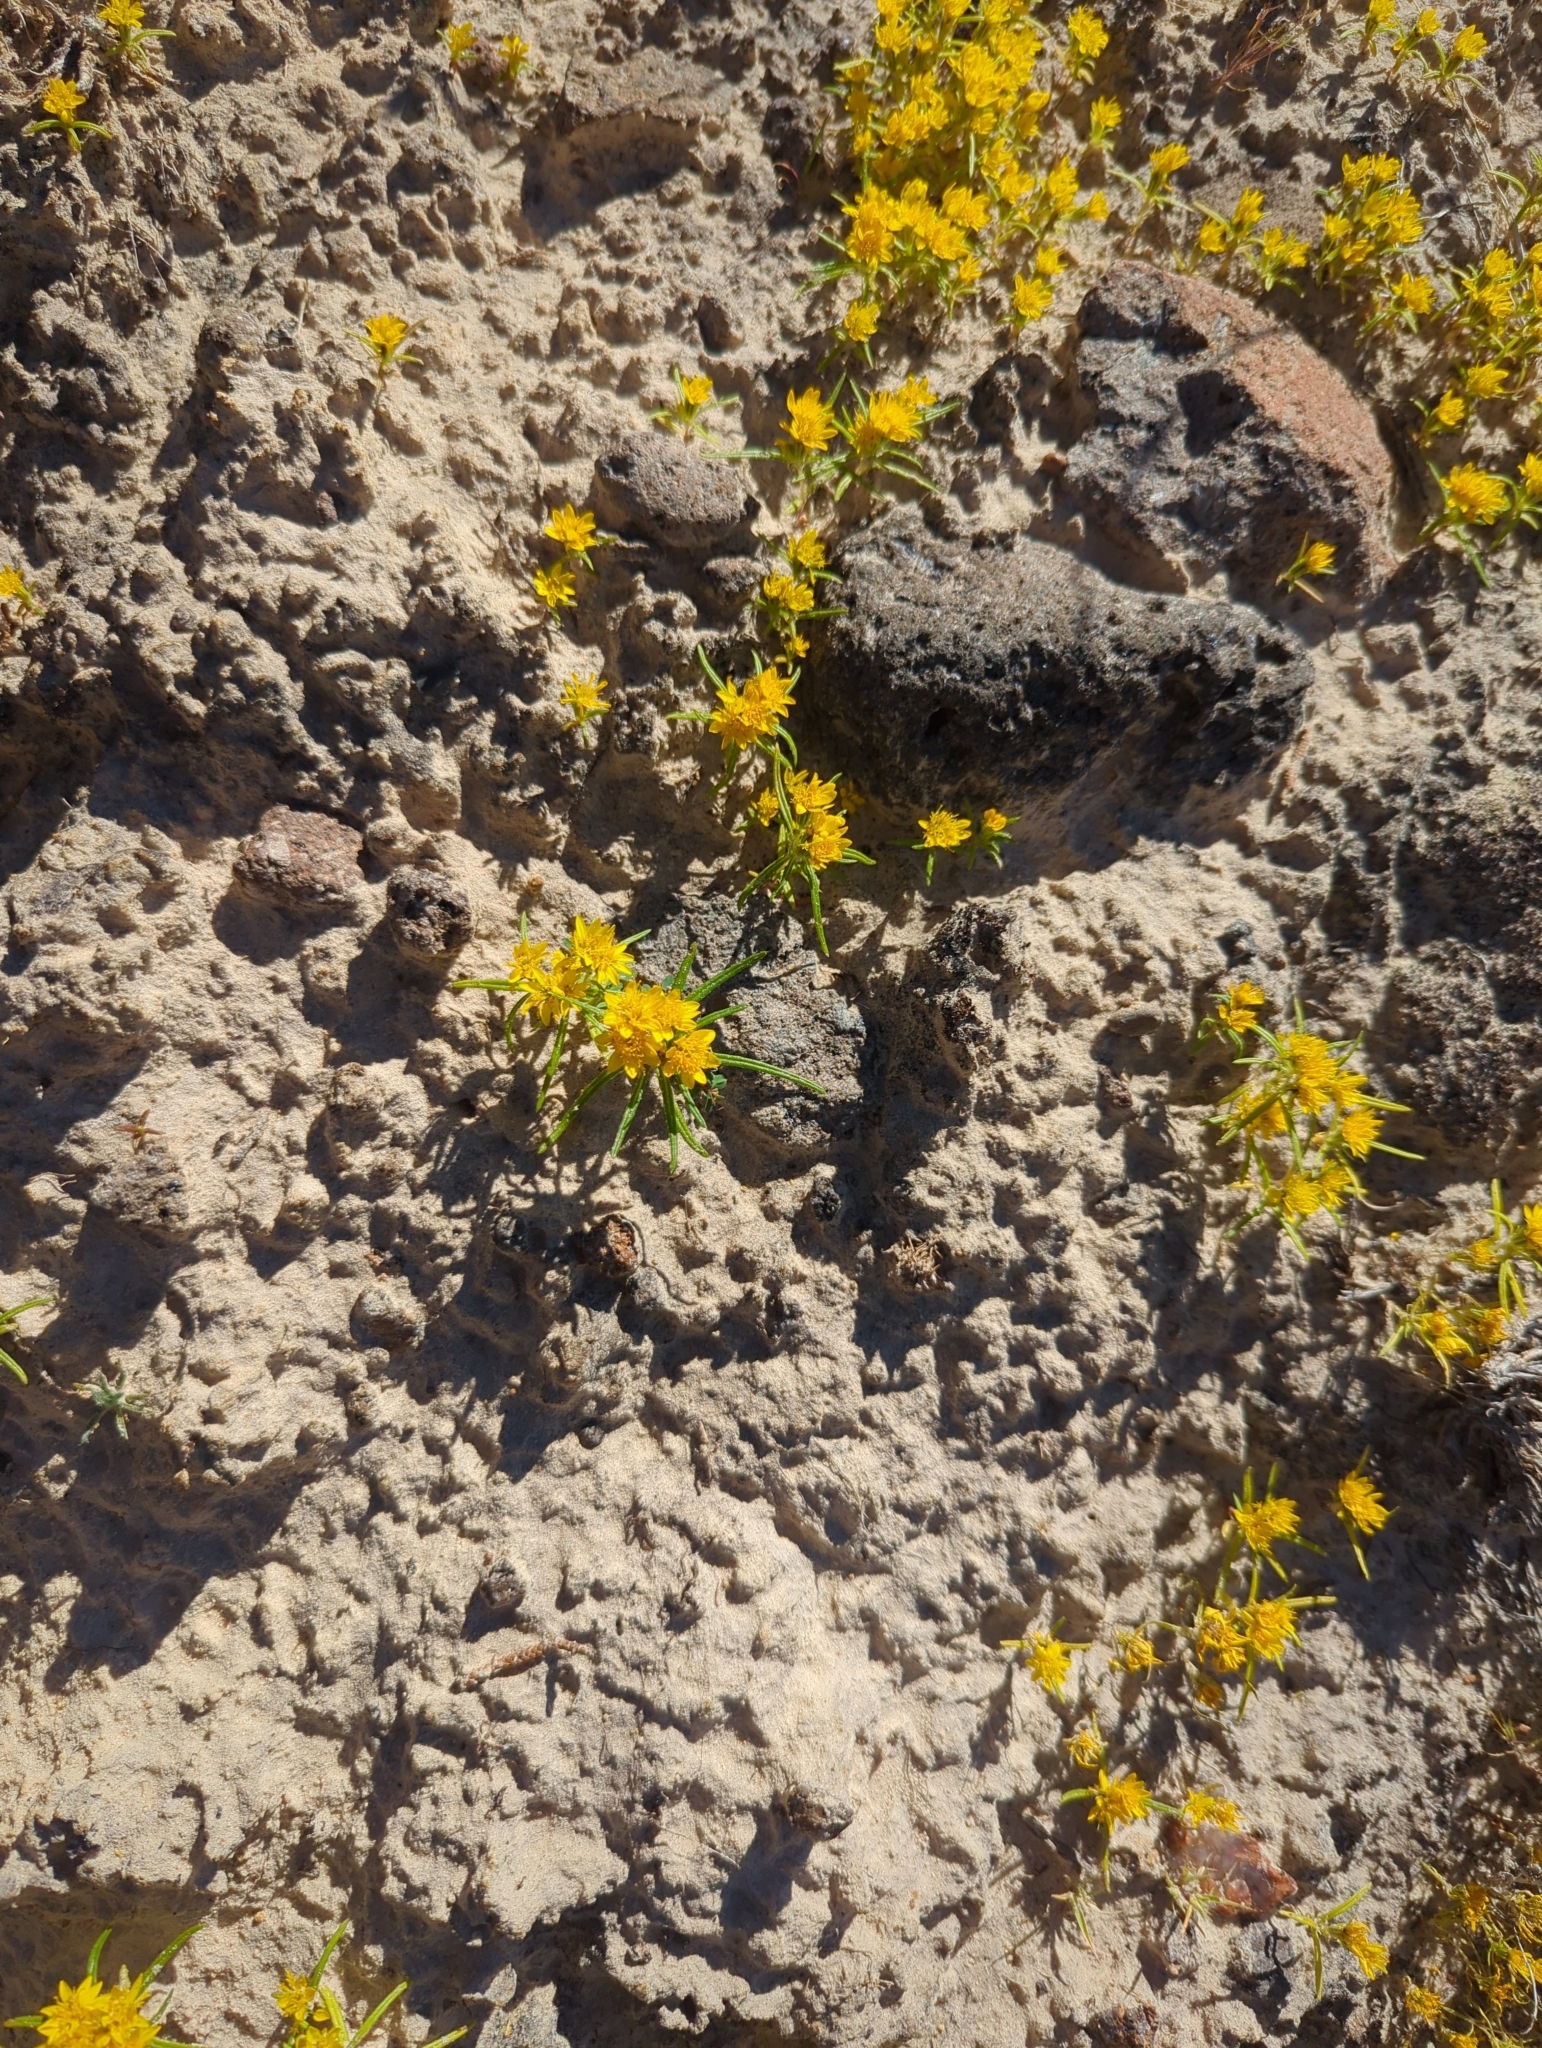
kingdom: Plantae
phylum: Tracheophyta
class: Magnoliopsida
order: Asterales
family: Asteraceae
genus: Pectis
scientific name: Pectis papposa
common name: Many-bristle chinchweed
